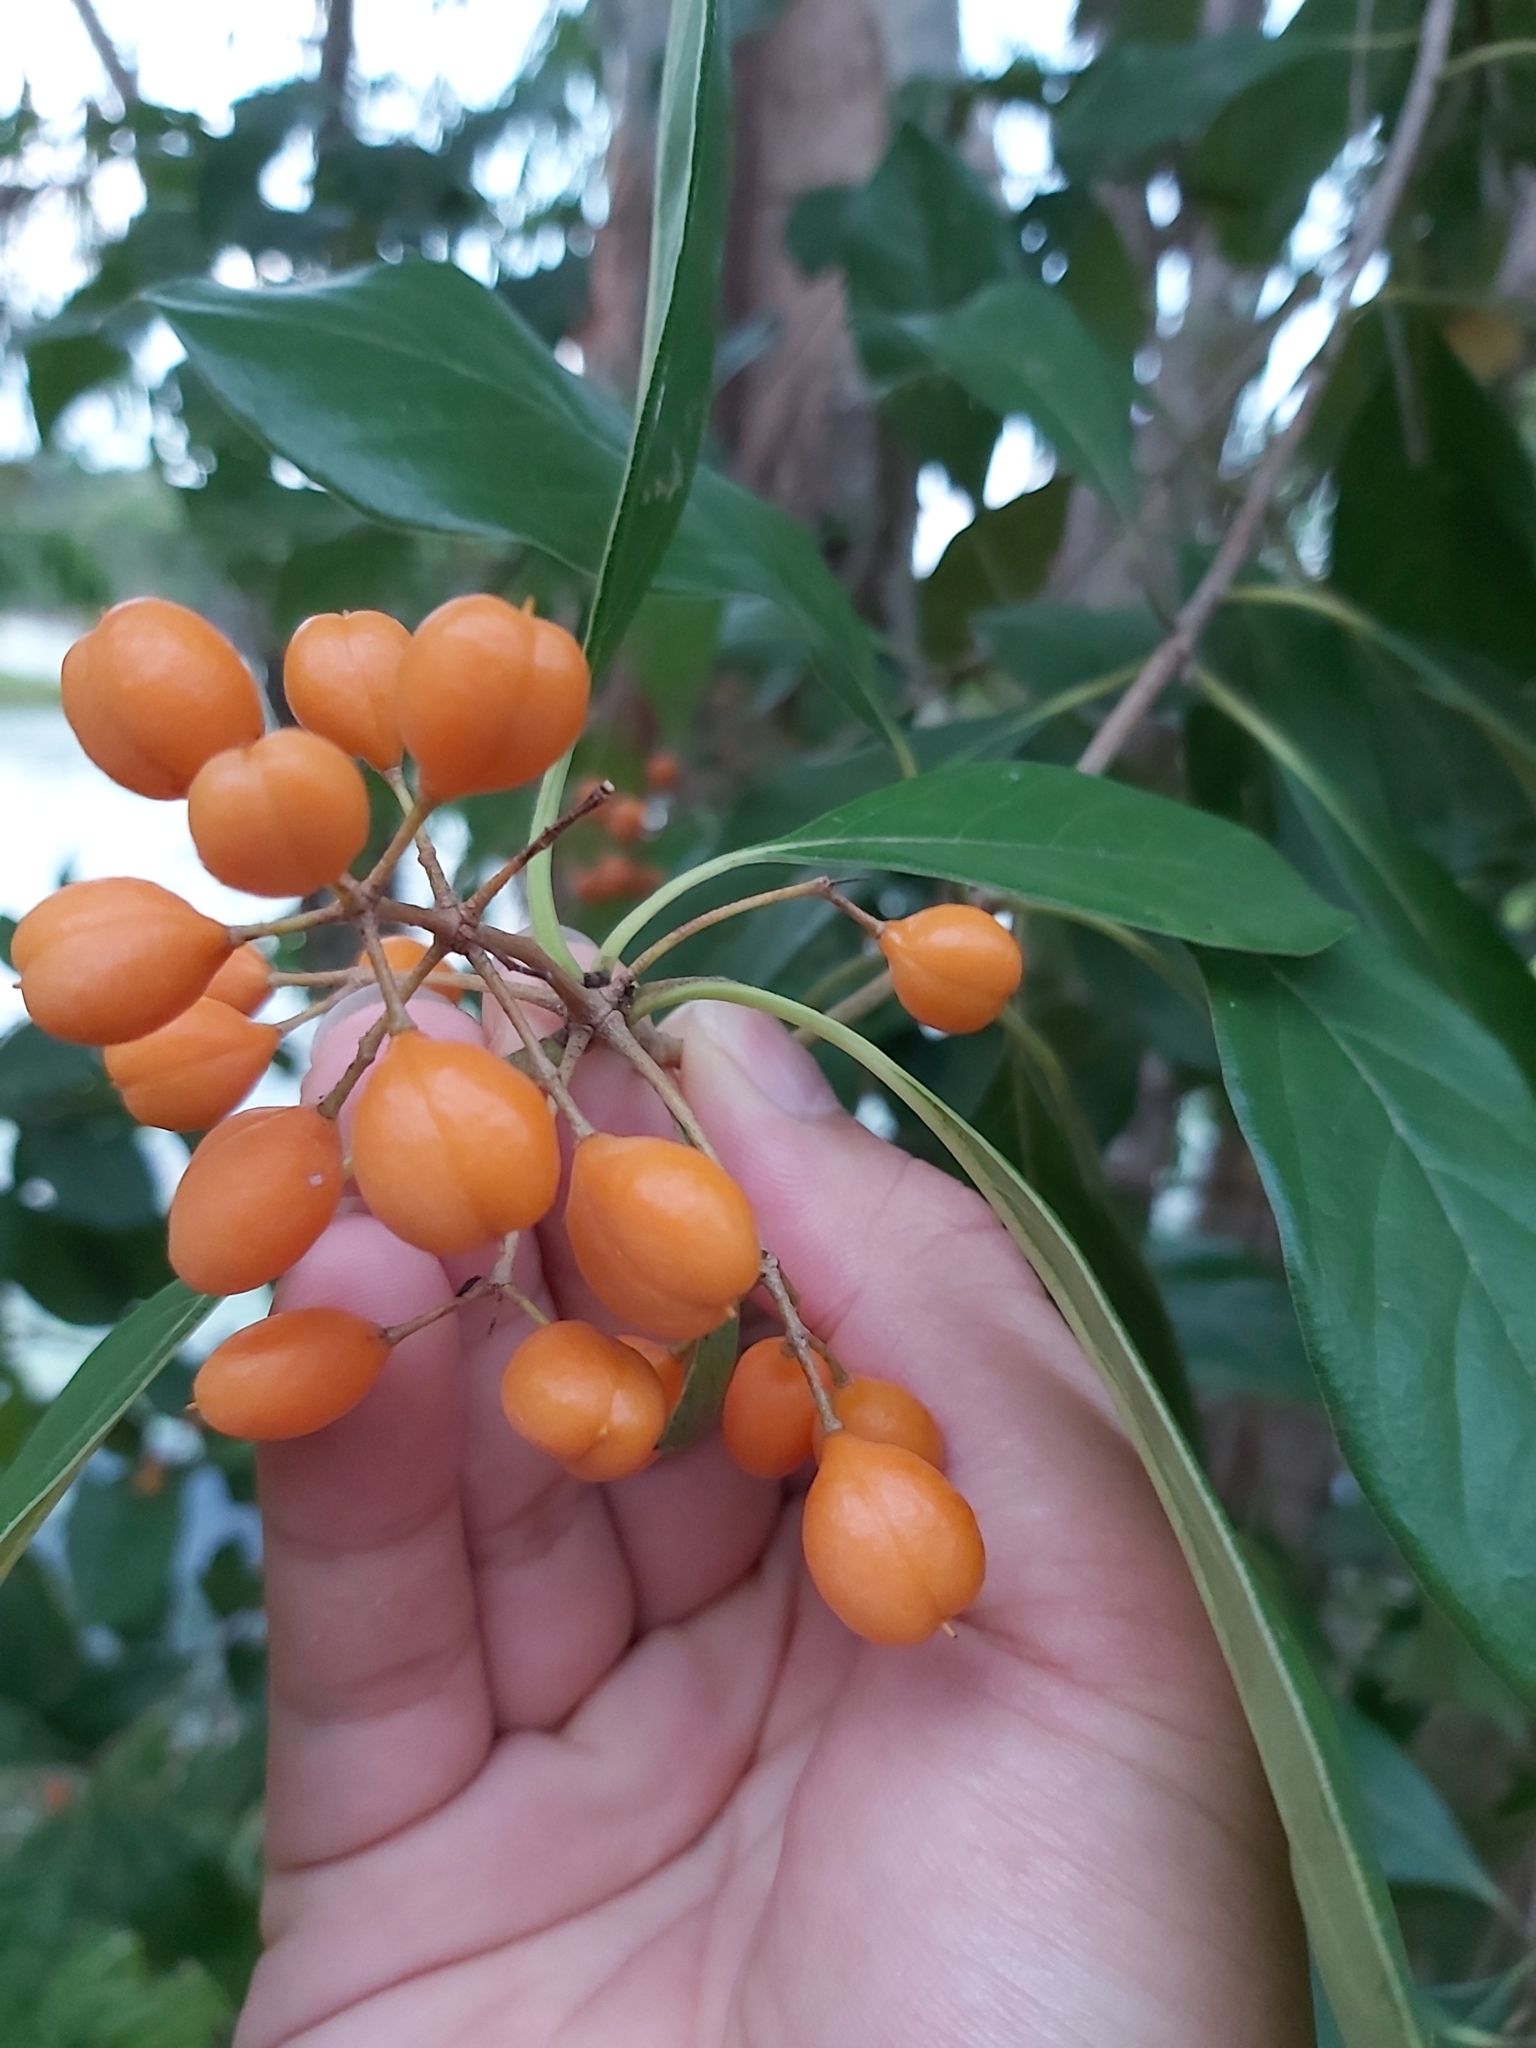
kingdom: Plantae
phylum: Tracheophyta
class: Magnoliopsida
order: Apiales
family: Pittosporaceae
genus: Pittosporum
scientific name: Pittosporum ferrugineum
